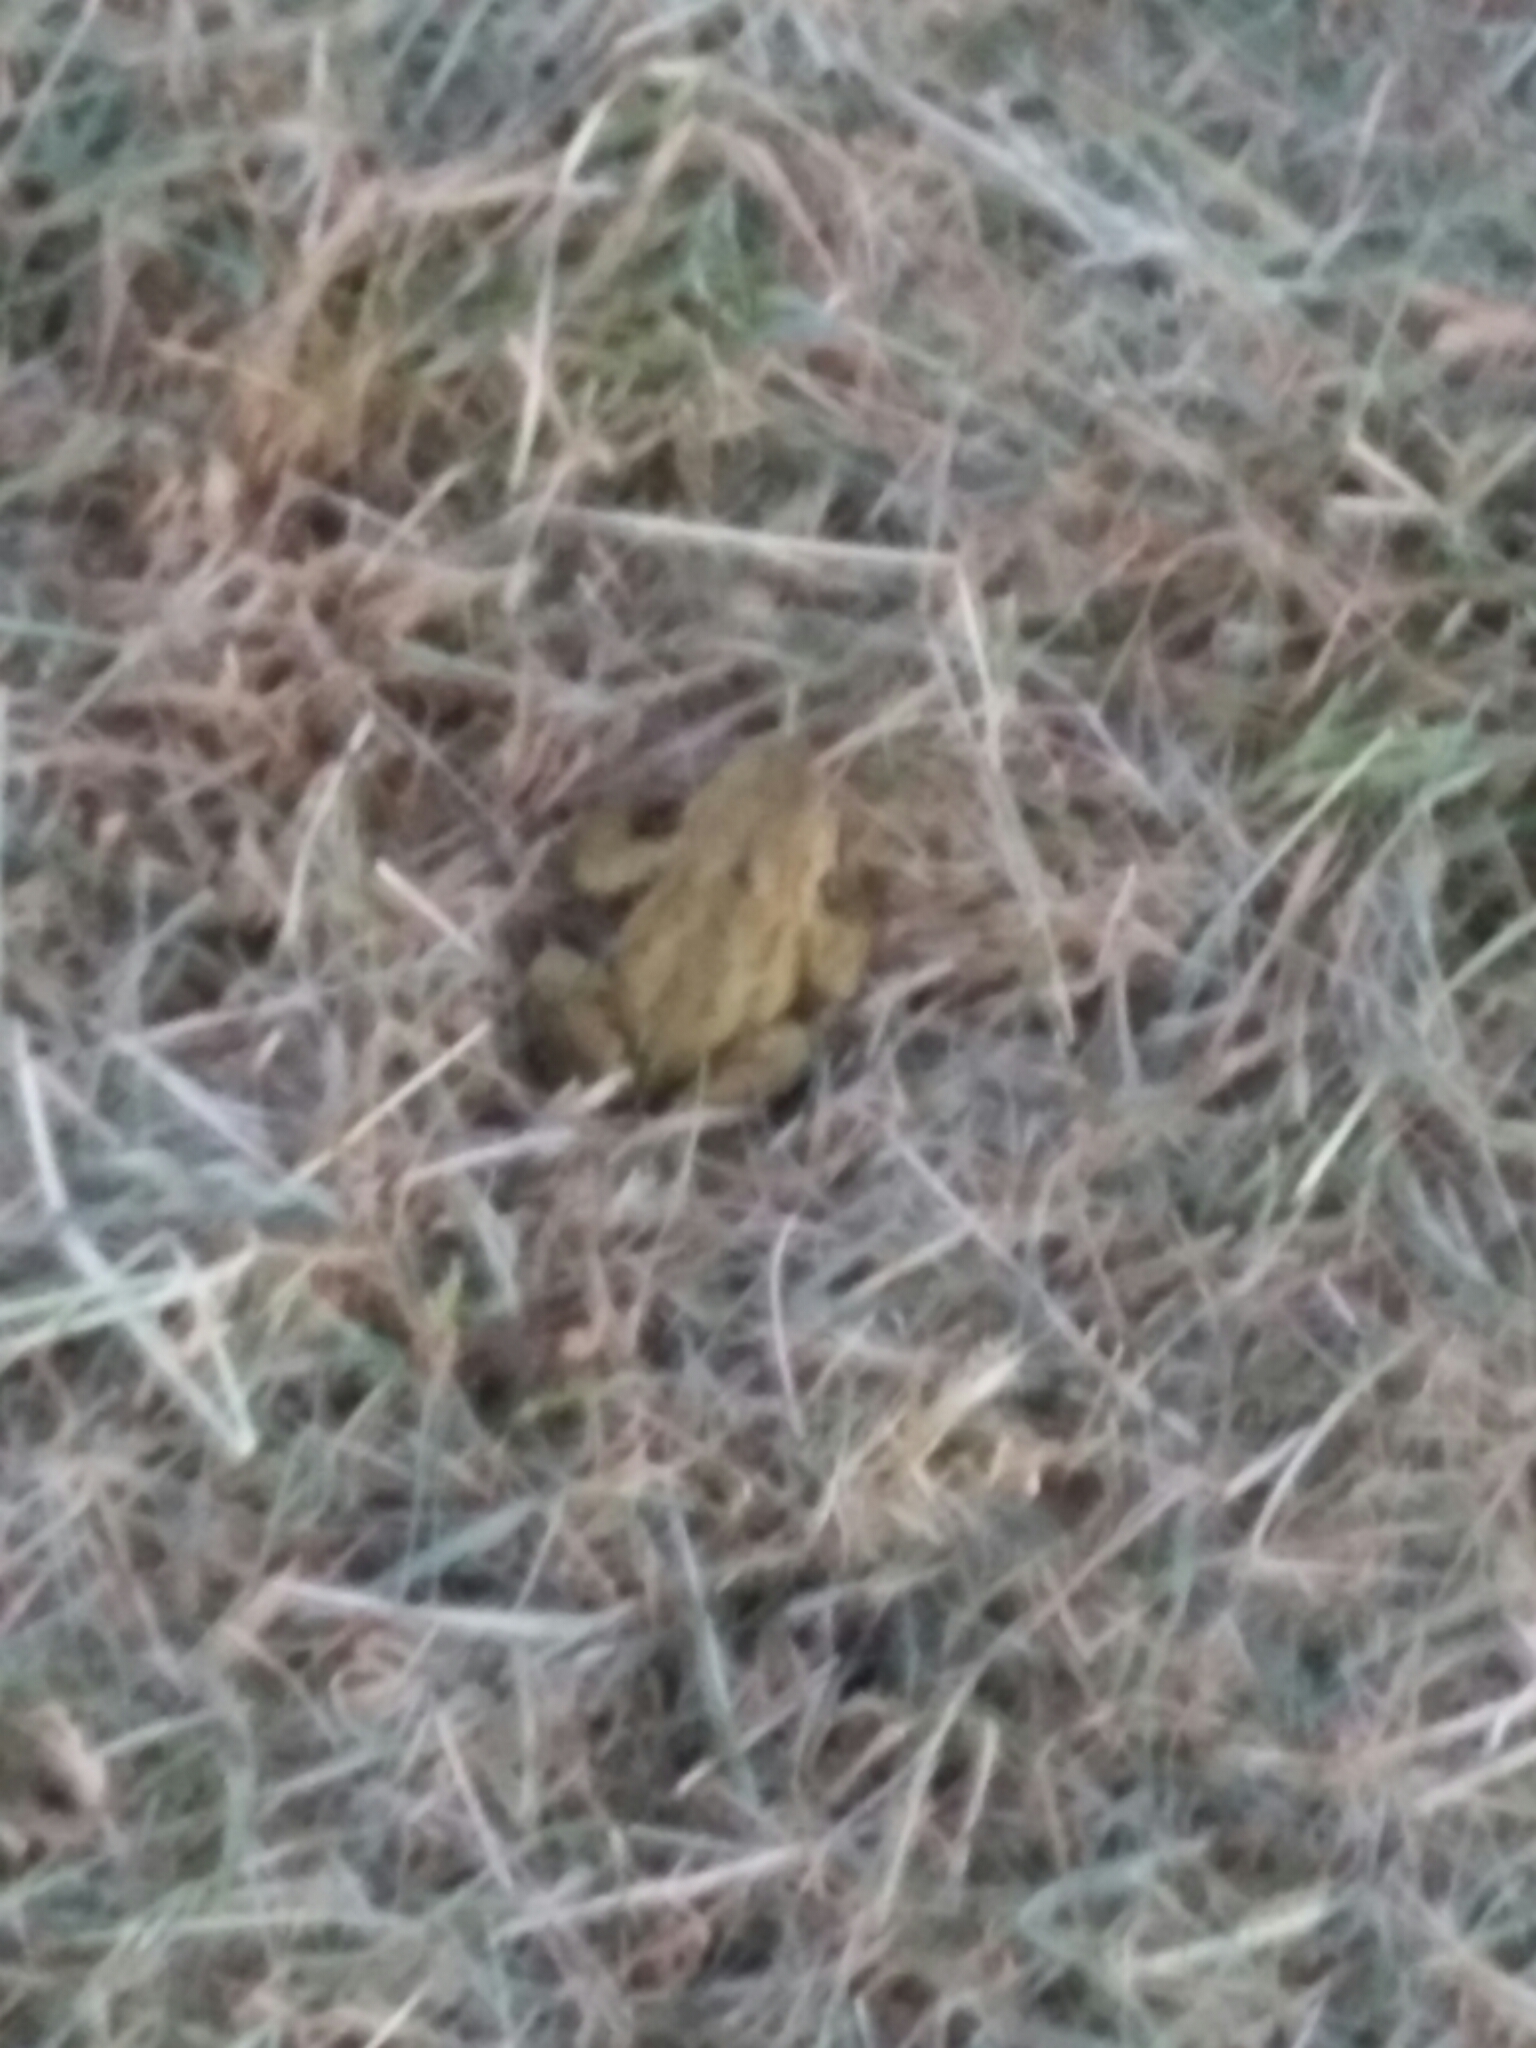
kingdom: Animalia
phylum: Chordata
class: Amphibia
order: Anura
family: Bufonidae
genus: Bufo
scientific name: Bufo bufo
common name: Common toad
